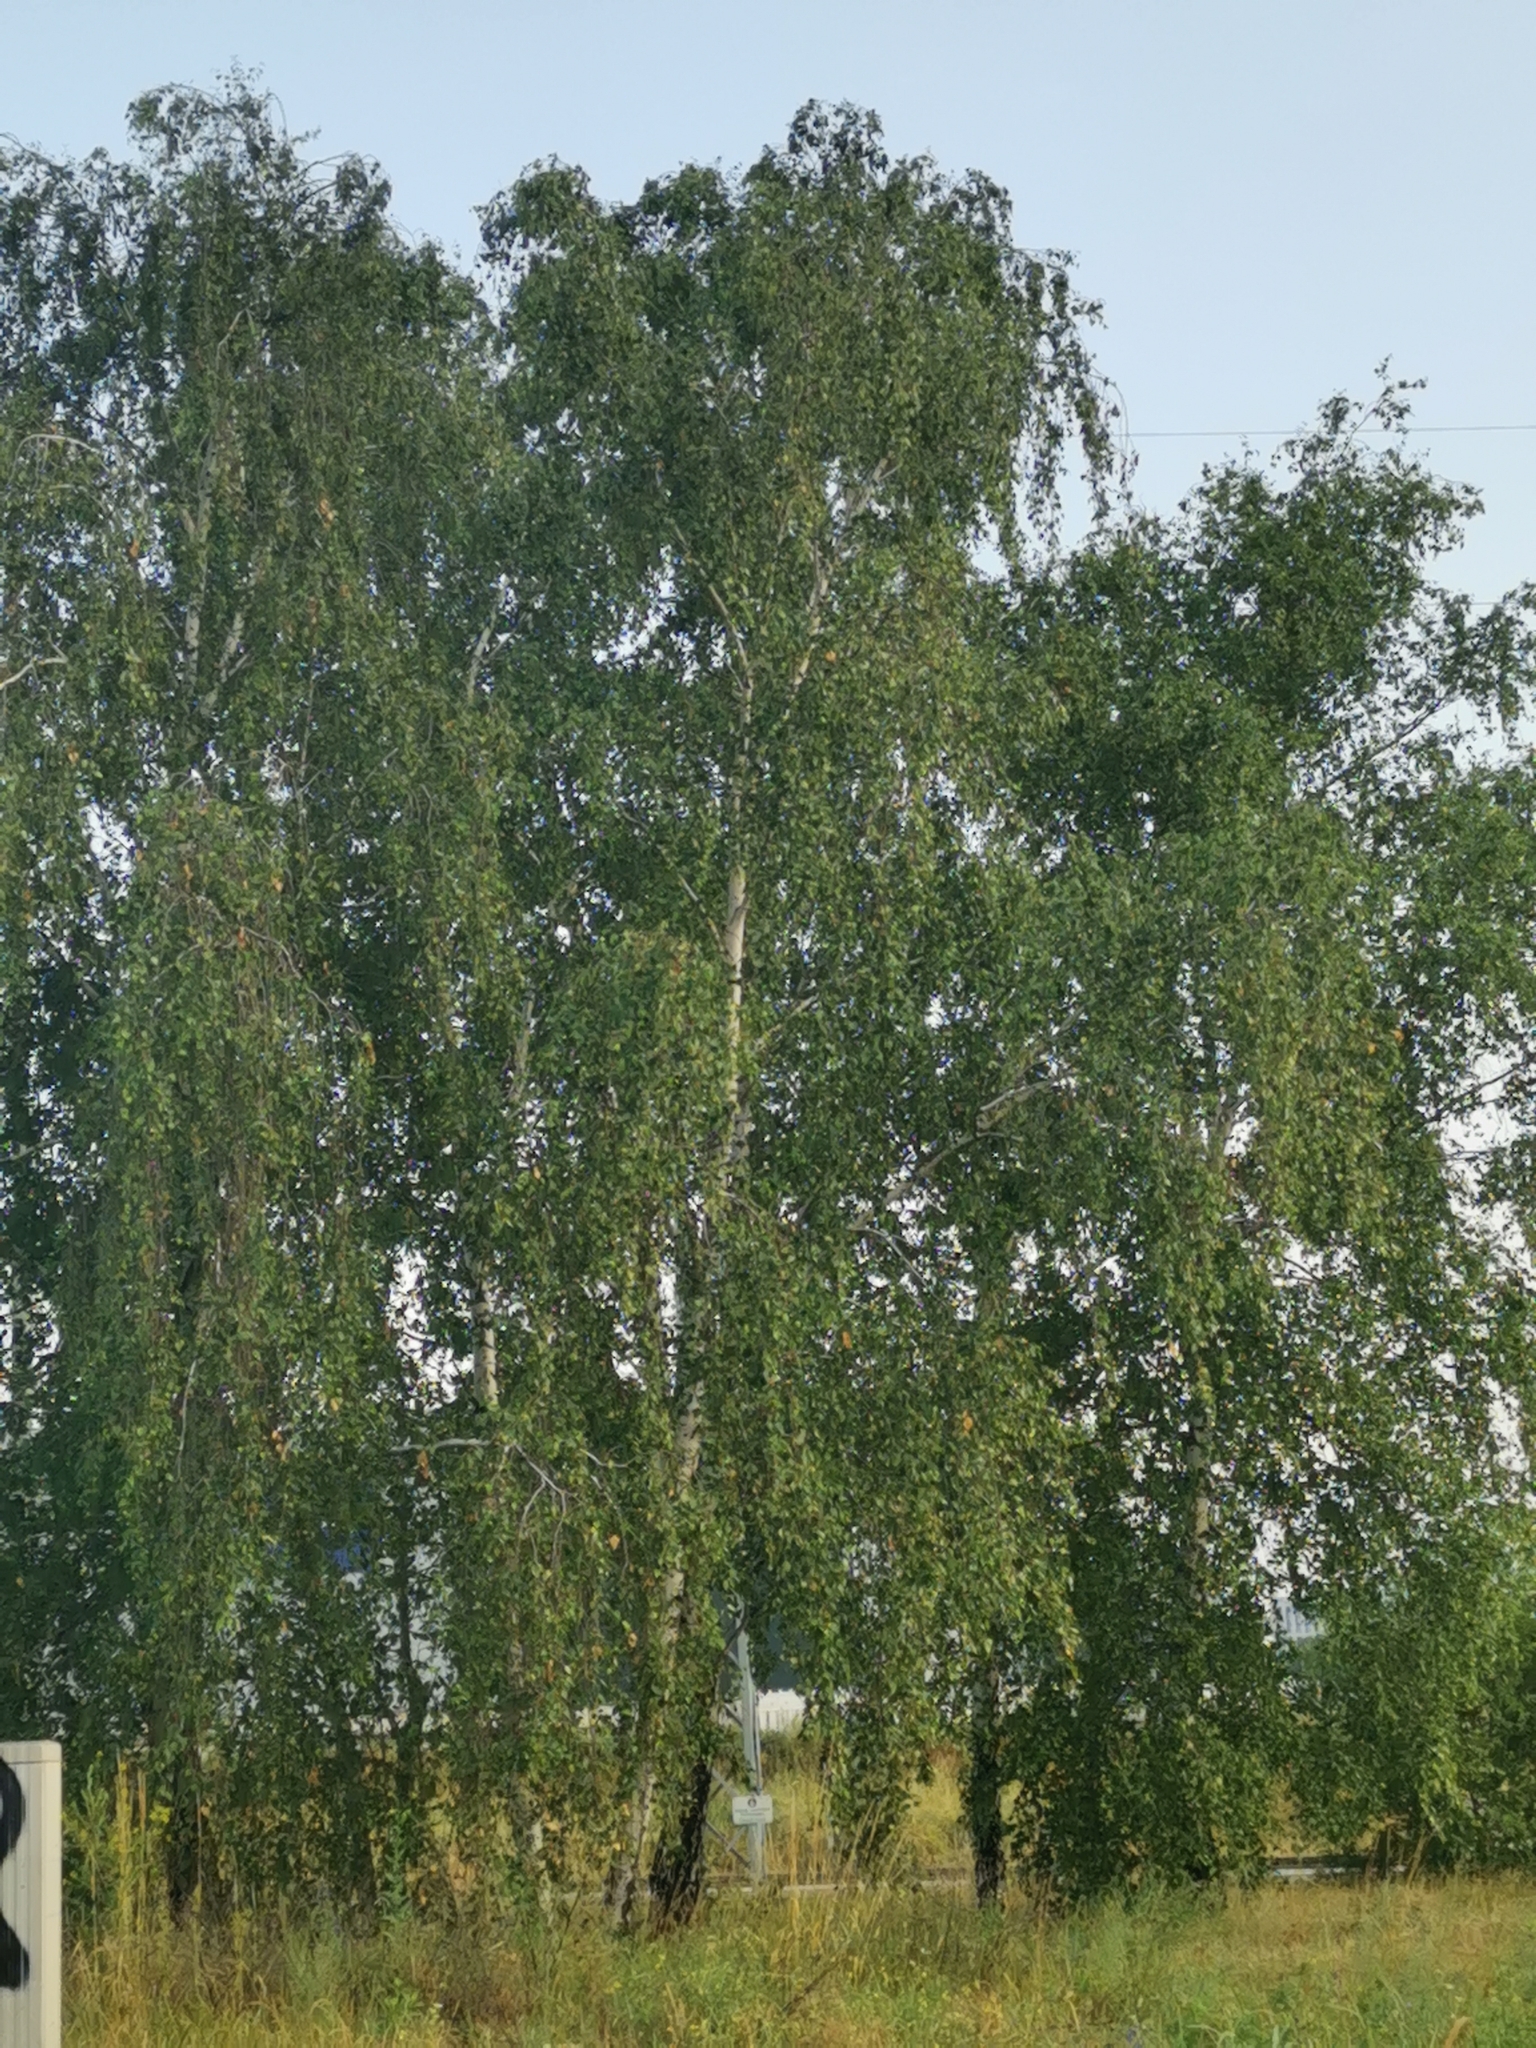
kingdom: Plantae
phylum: Tracheophyta
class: Magnoliopsida
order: Fagales
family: Betulaceae
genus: Betula
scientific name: Betula pendula
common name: Silver birch
